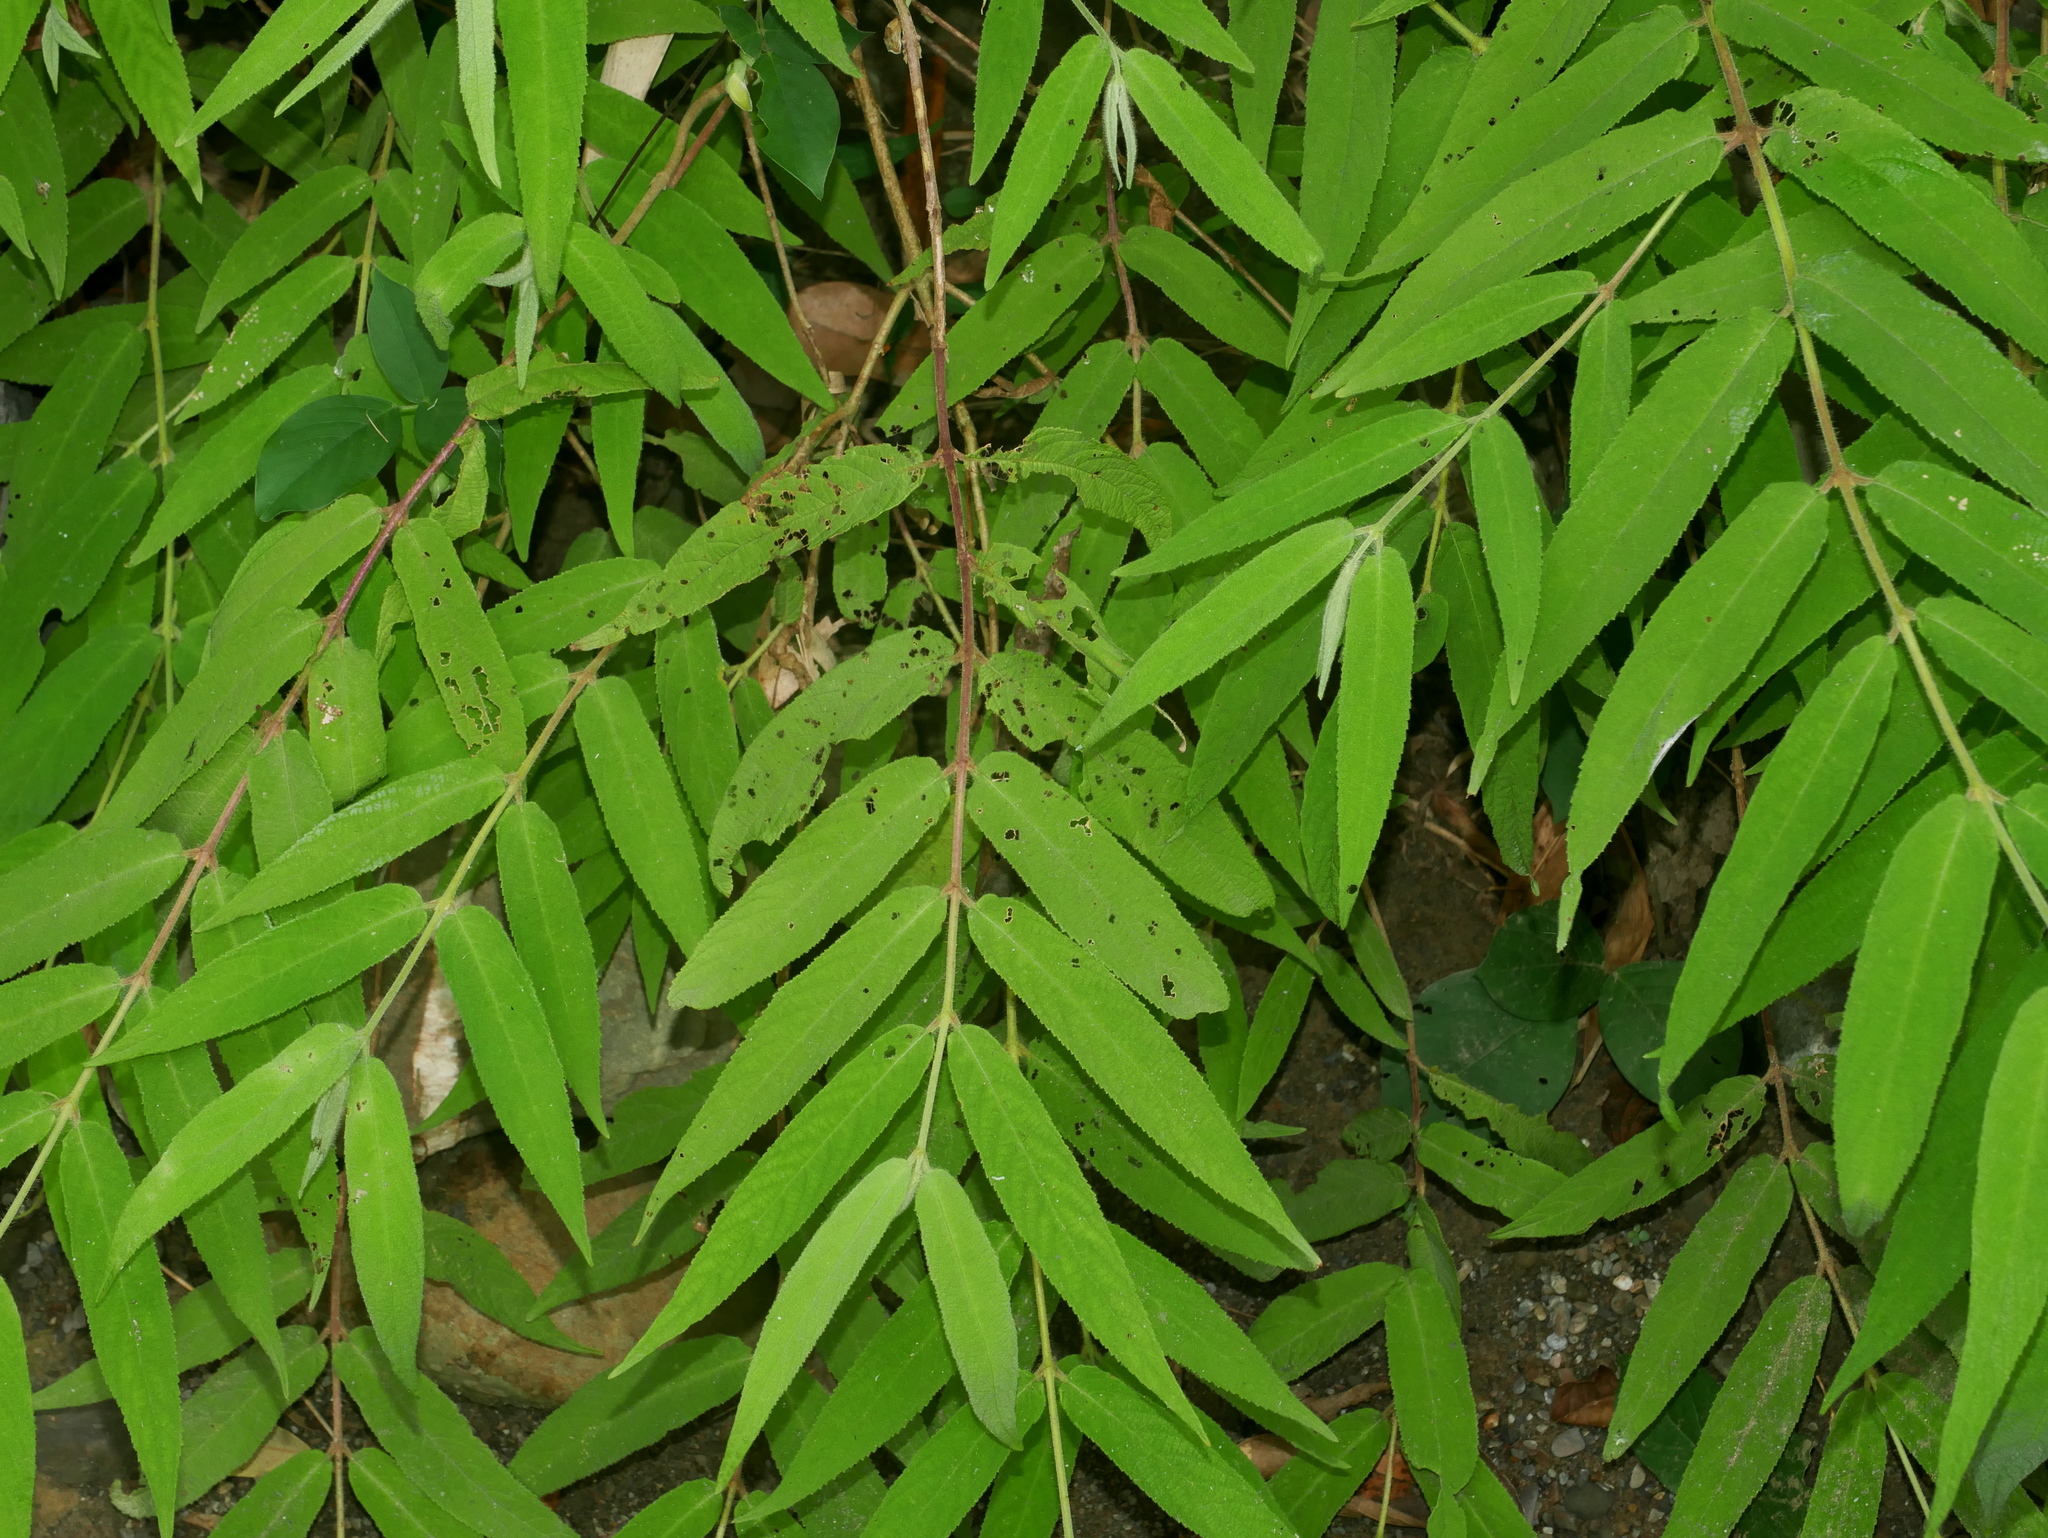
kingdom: Plantae
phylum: Tracheophyta
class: Magnoliopsida
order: Lamiales
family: Lamiaceae
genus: Callicarpa
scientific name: Callicarpa pilosissima
